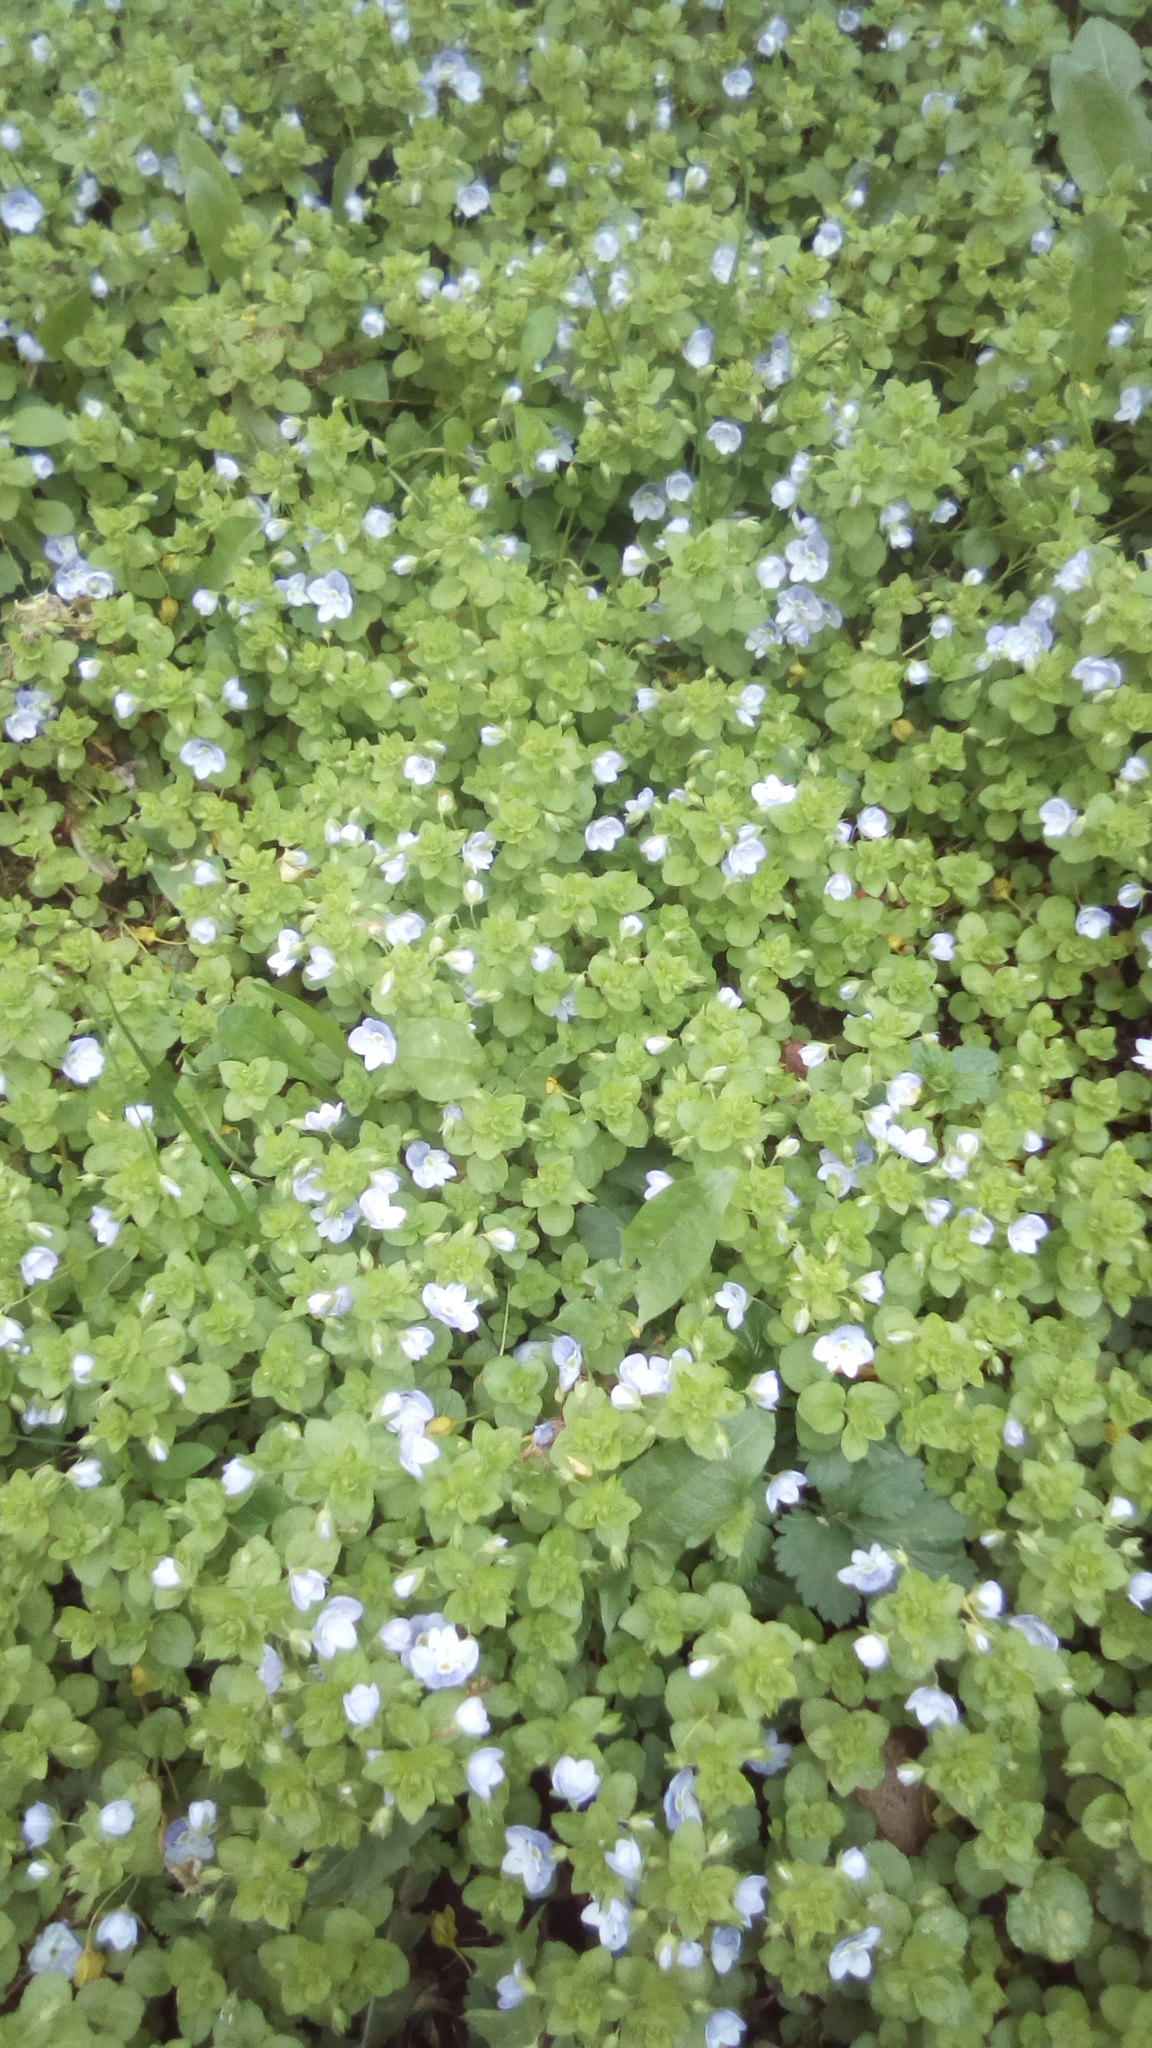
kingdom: Plantae
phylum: Tracheophyta
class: Magnoliopsida
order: Lamiales
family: Plantaginaceae
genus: Veronica
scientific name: Veronica filiformis
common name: Slender speedwell
